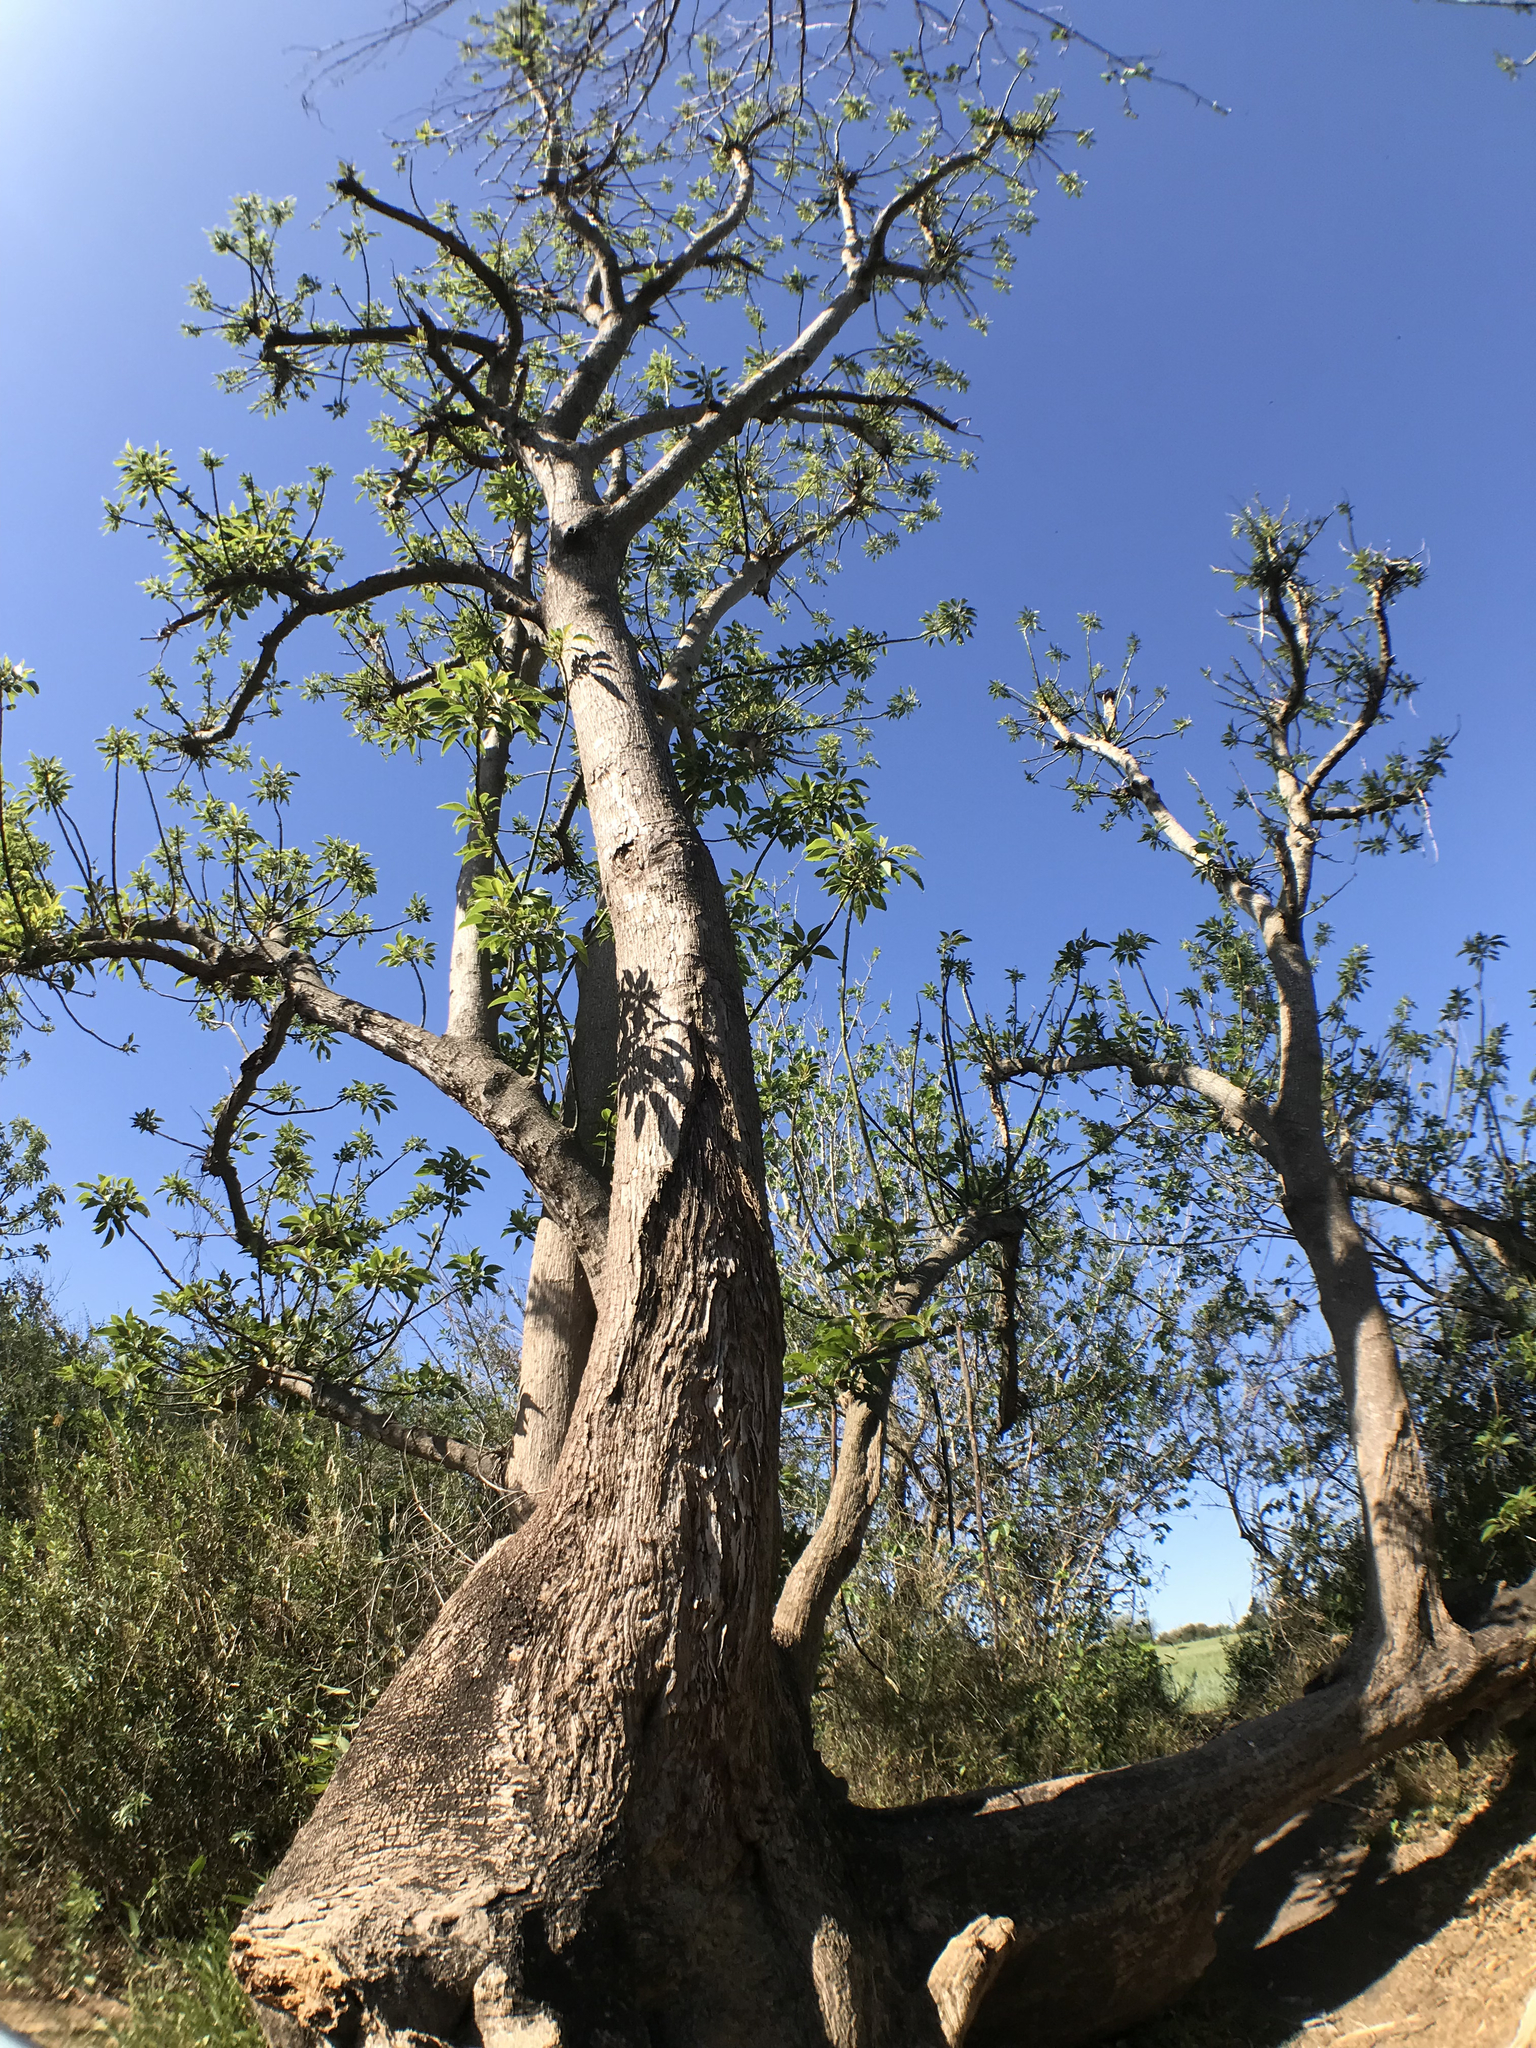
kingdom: Plantae
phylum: Tracheophyta
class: Magnoliopsida
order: Caryophyllales
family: Phytolaccaceae
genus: Phytolacca
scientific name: Phytolacca dioica
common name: Pokeweed
